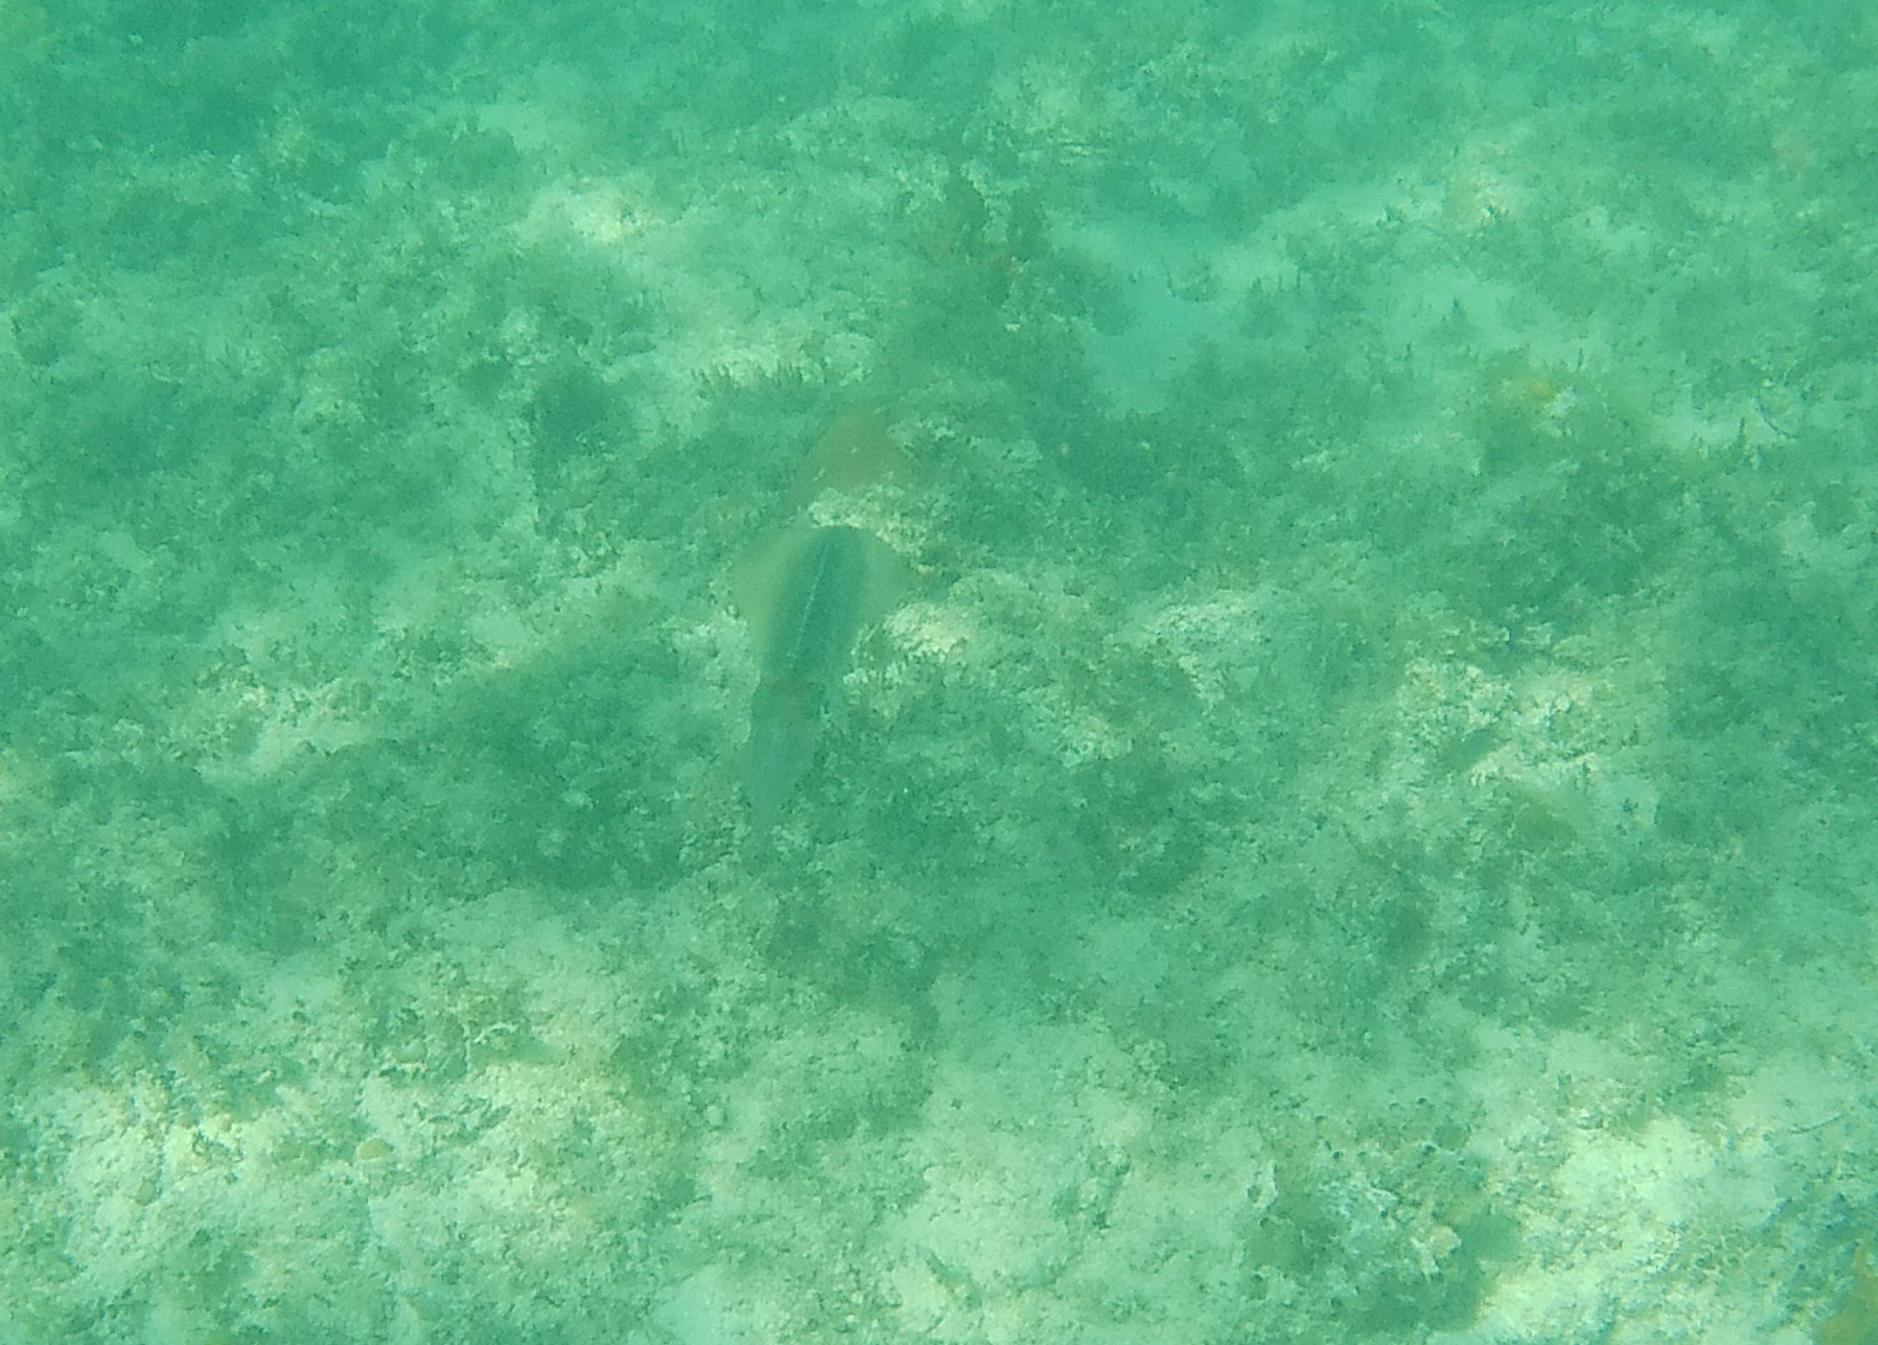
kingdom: Animalia
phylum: Mollusca
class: Cephalopoda
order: Myopsida
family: Loliginidae
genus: Sepioteuthis
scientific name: Sepioteuthis sepioidea
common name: Caribbean reef squid
